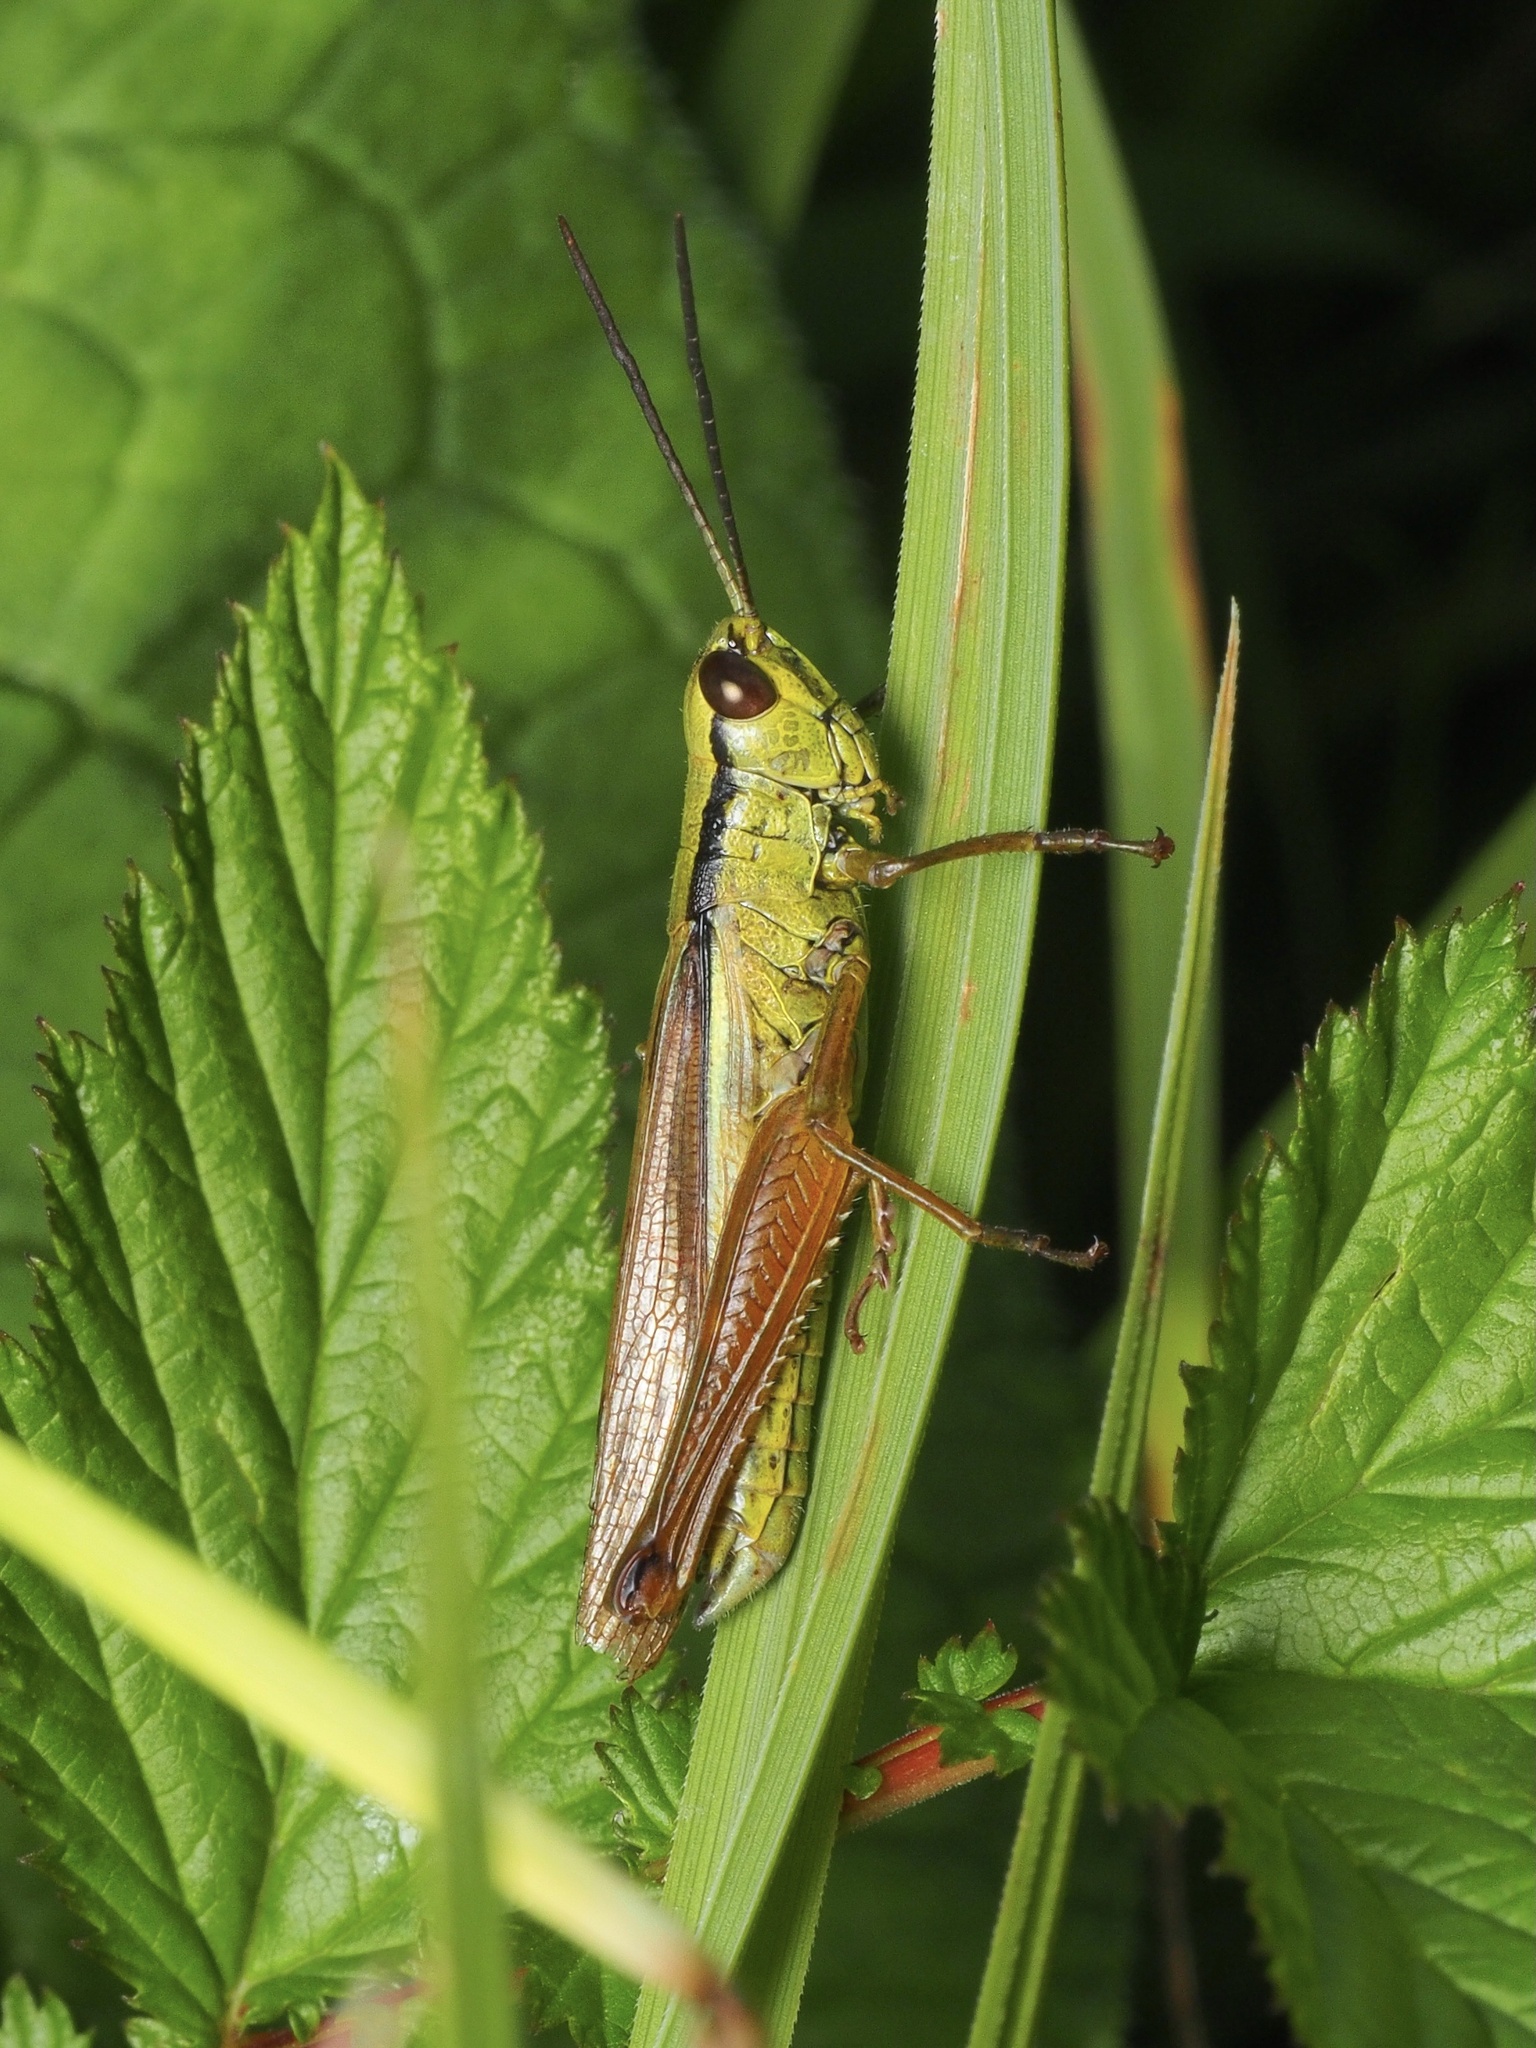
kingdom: Animalia
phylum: Arthropoda
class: Insecta
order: Orthoptera
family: Acrididae
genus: Mecostethus
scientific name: Mecostethus parapleurus
